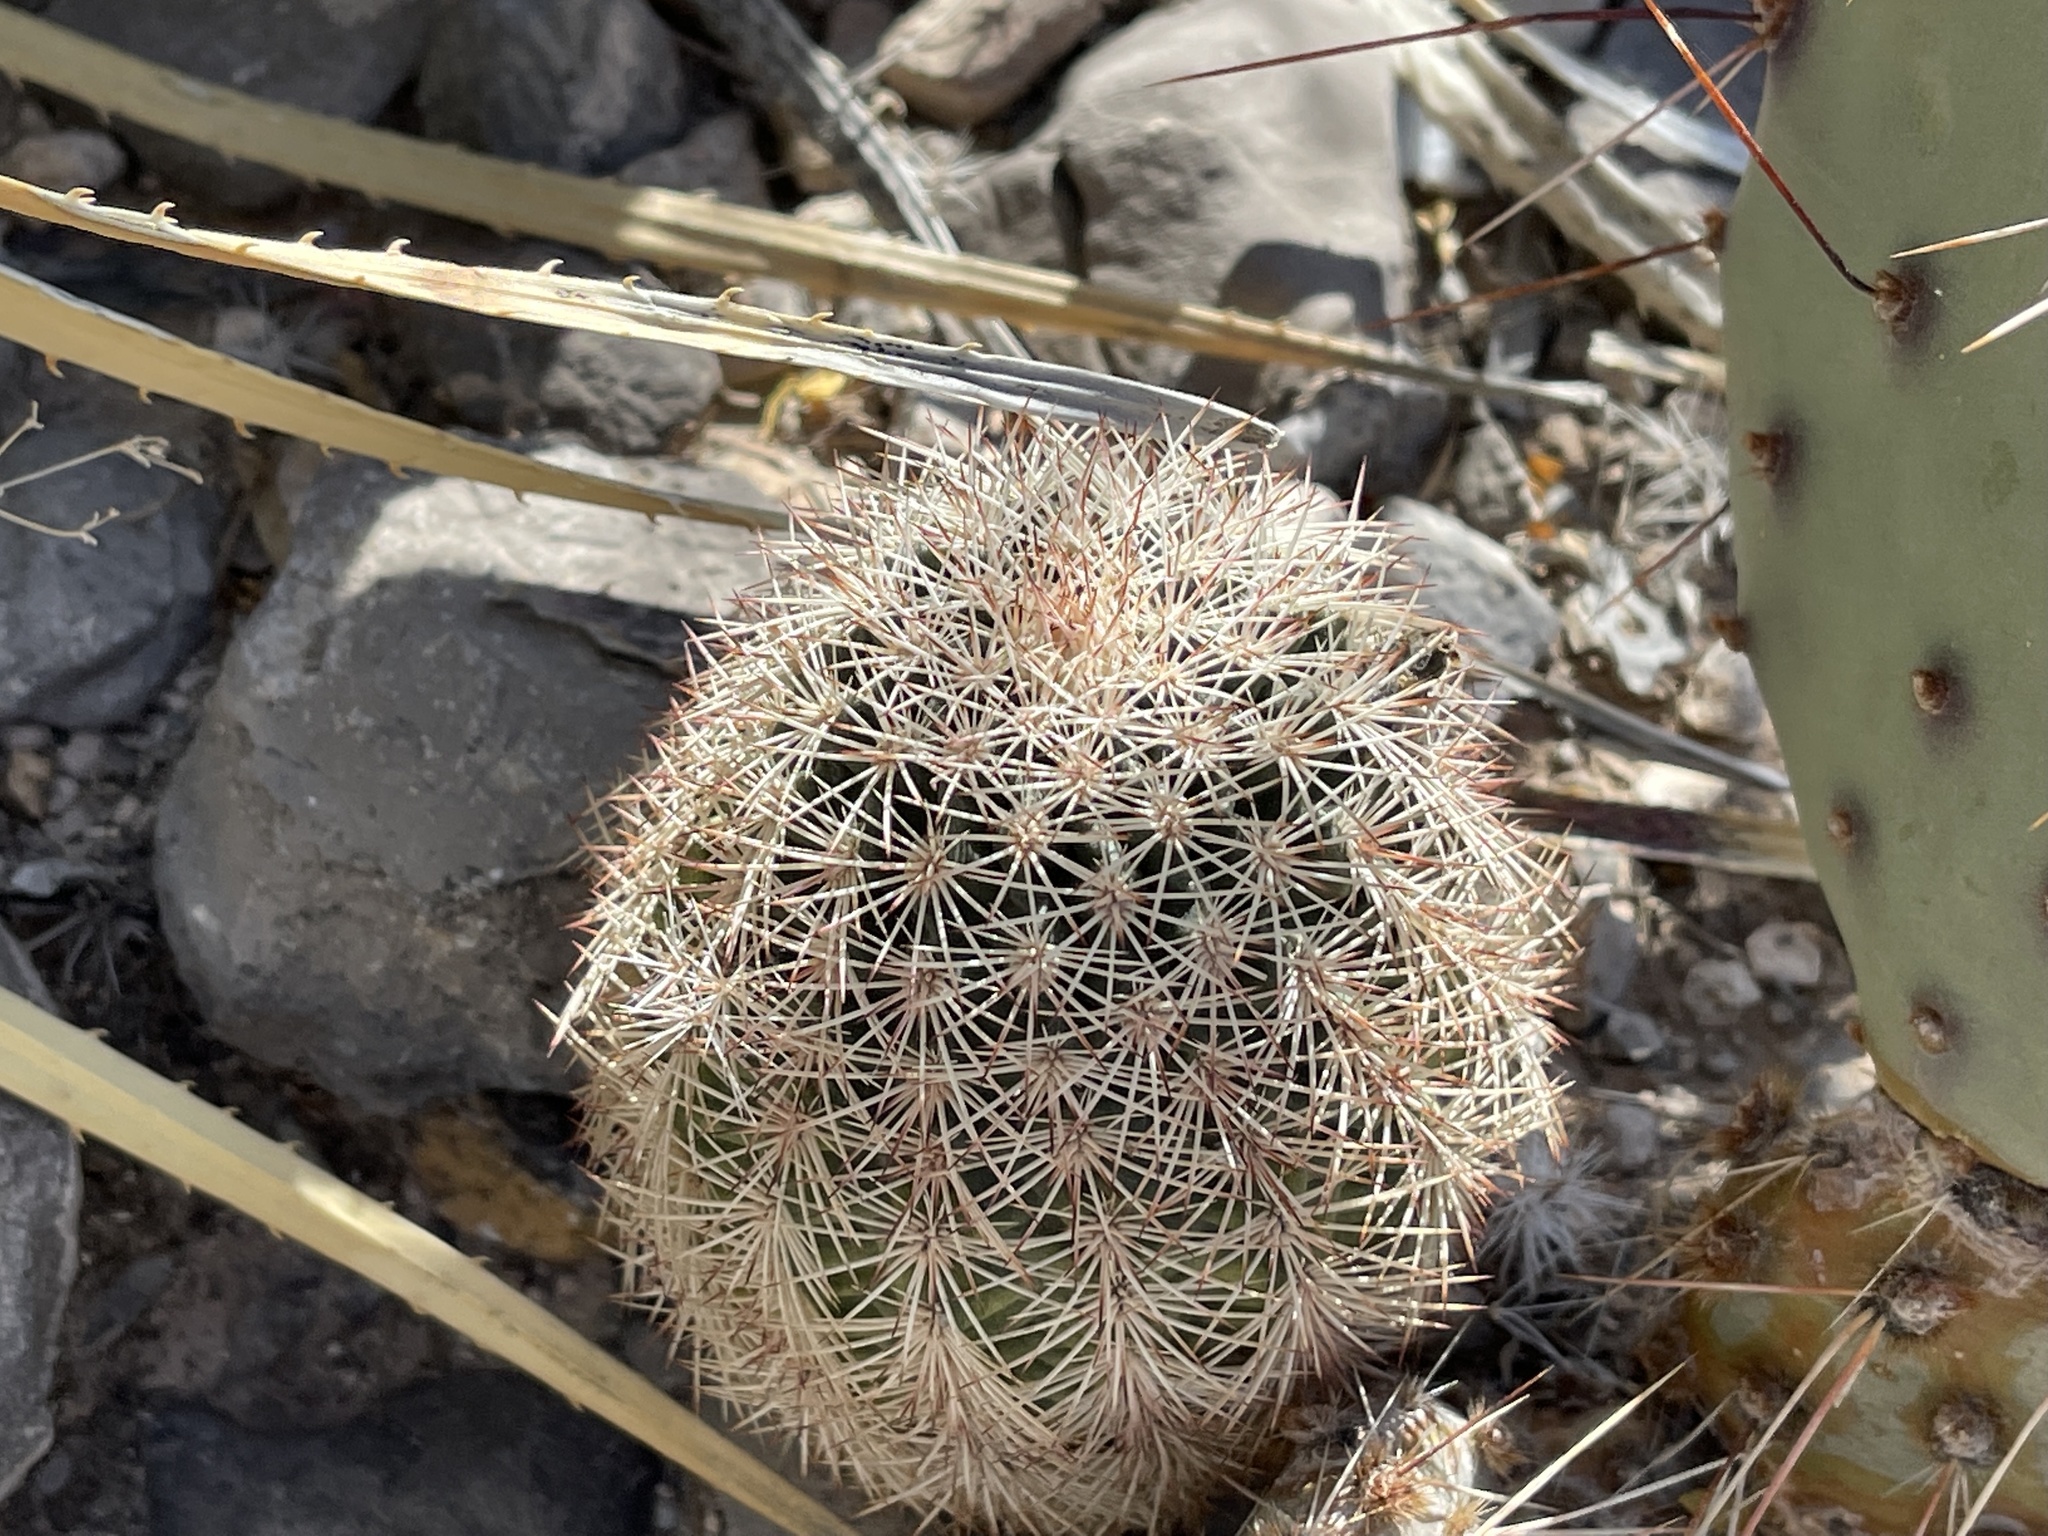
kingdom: Plantae
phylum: Tracheophyta
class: Magnoliopsida
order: Caryophyllales
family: Cactaceae
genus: Echinocereus
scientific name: Echinocereus dasyacanthus
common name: Spiny hedgehog cactus
